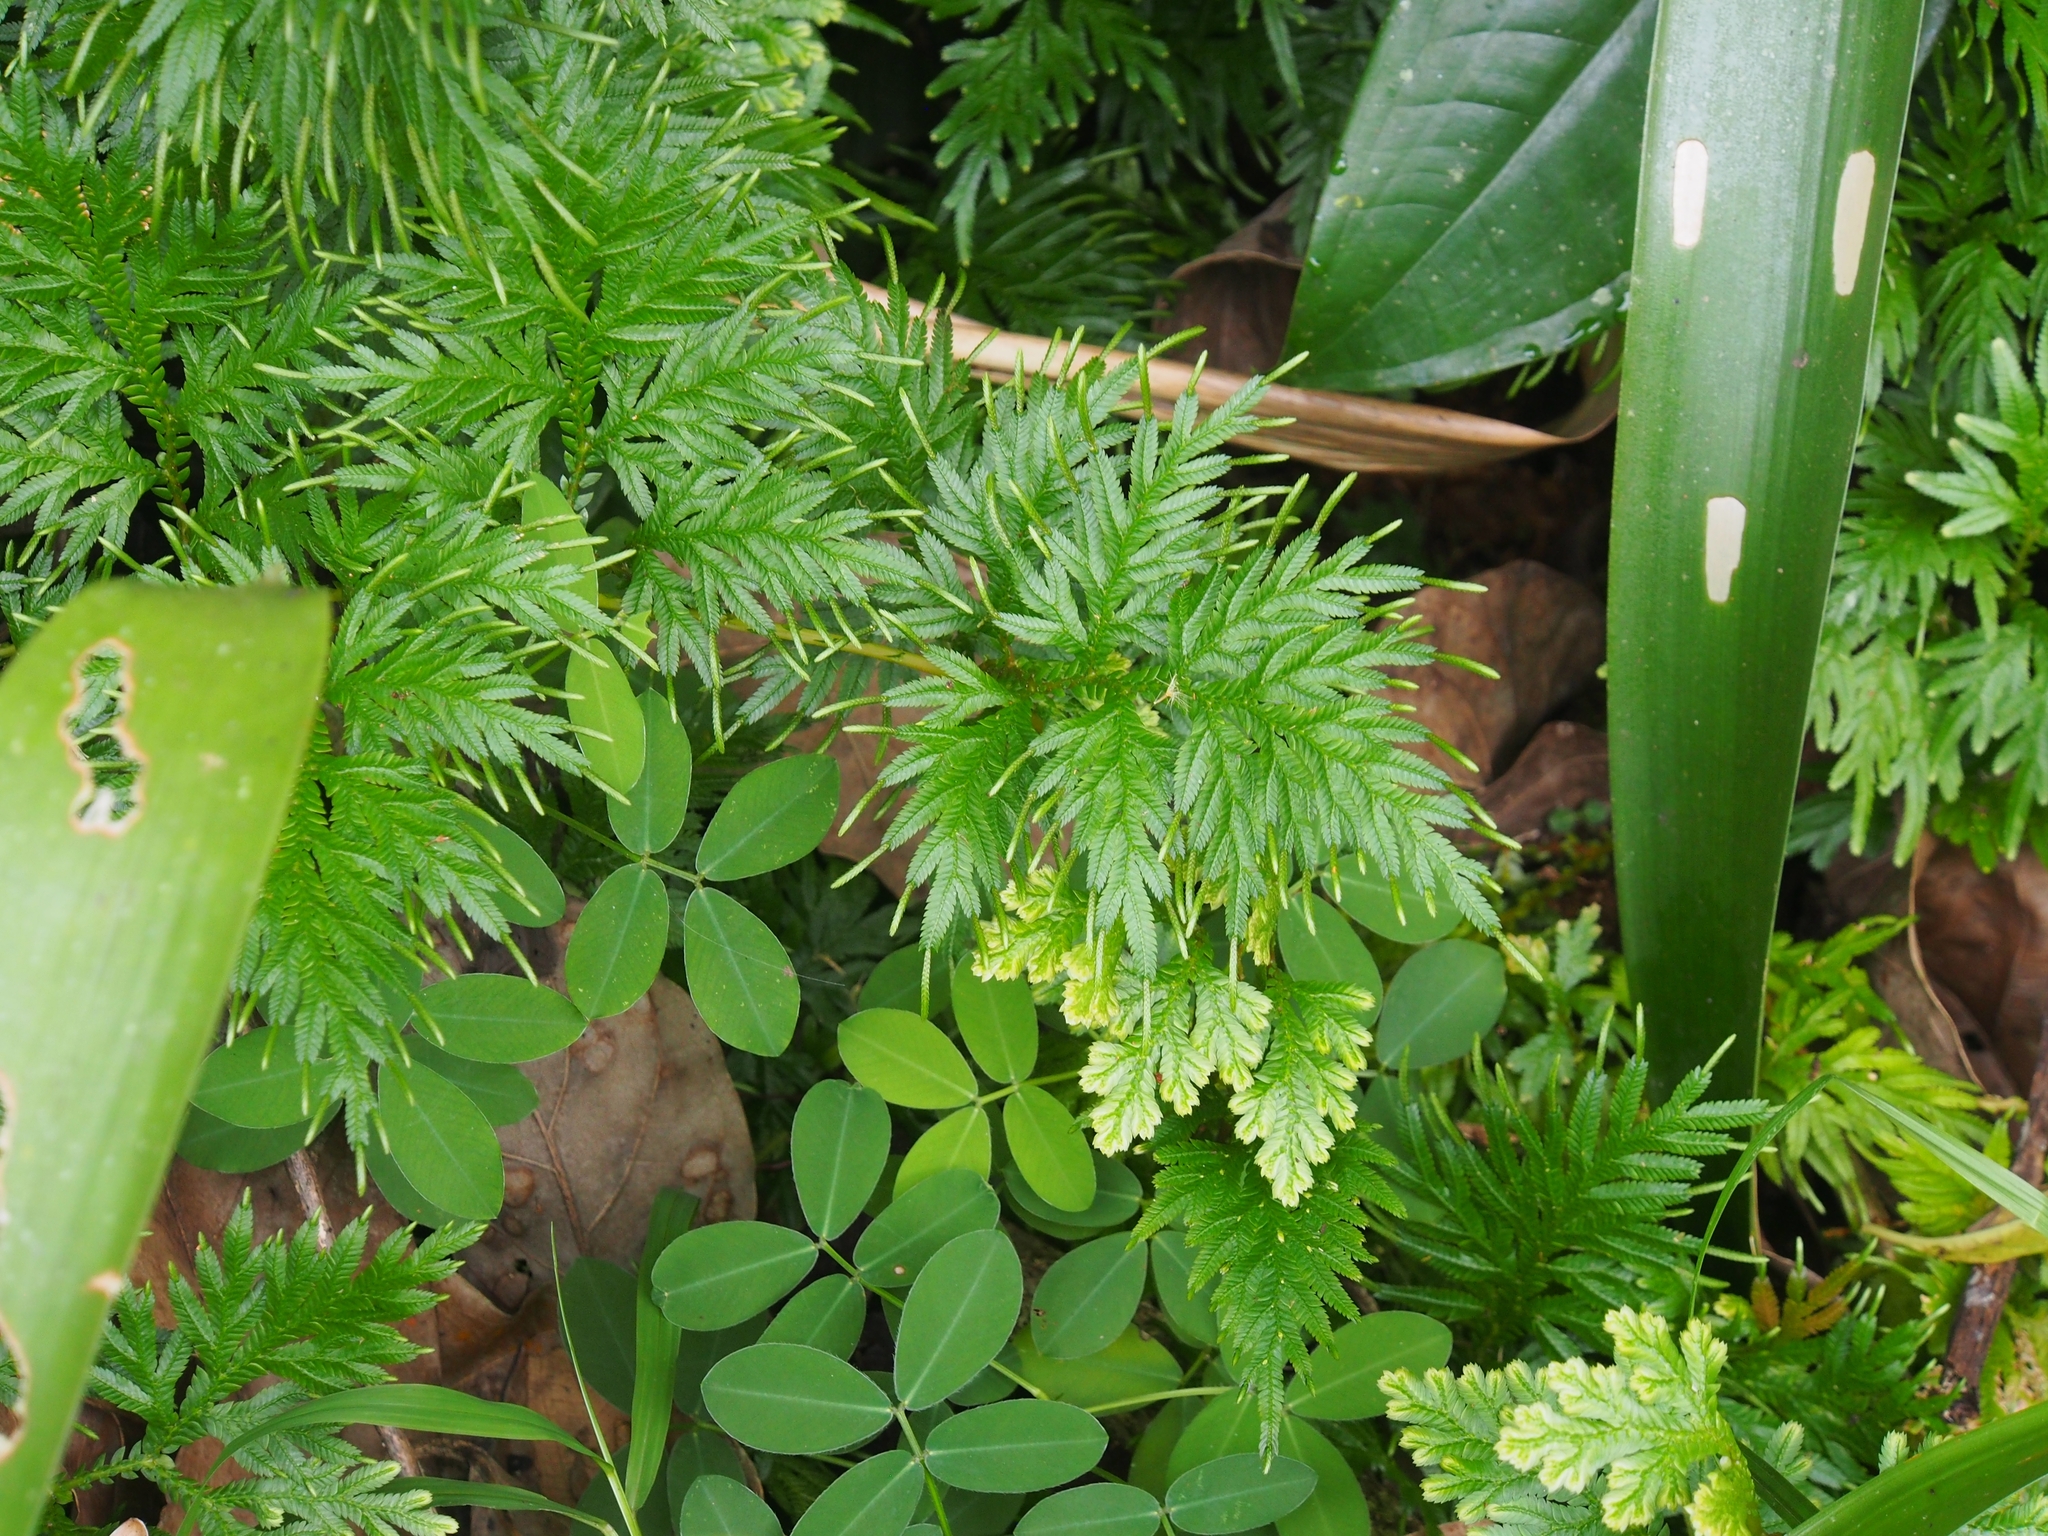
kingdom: Plantae
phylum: Tracheophyta
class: Lycopodiopsida
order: Selaginellales
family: Selaginellaceae
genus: Selaginella
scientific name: Selaginella plana
